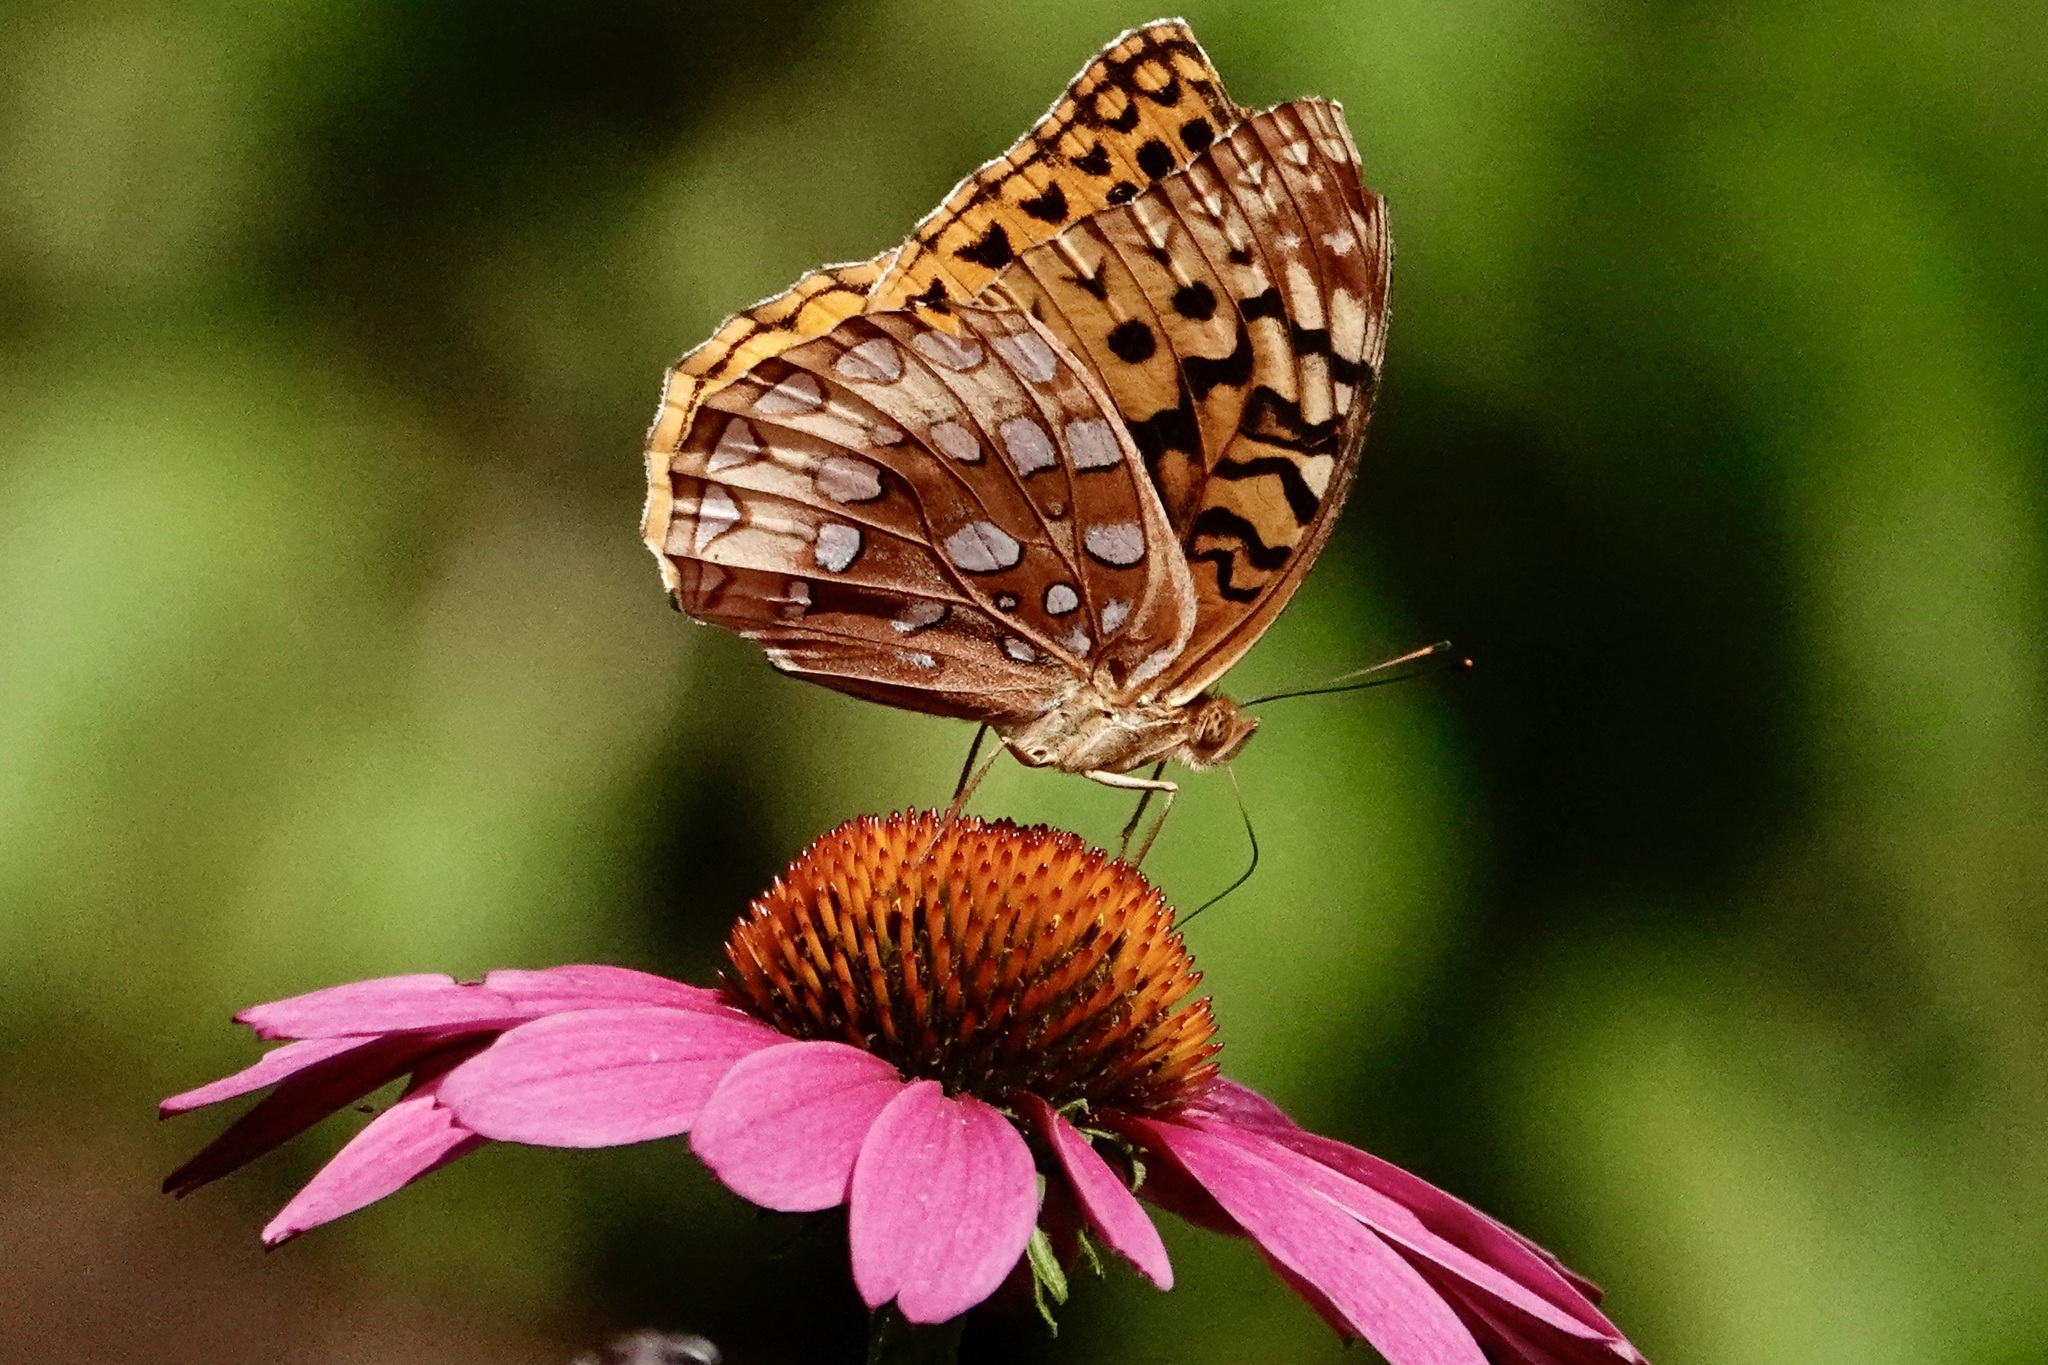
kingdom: Animalia
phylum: Arthropoda
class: Insecta
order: Lepidoptera
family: Nymphalidae
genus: Speyeria
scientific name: Speyeria cybele
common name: Great spangled fritillary
